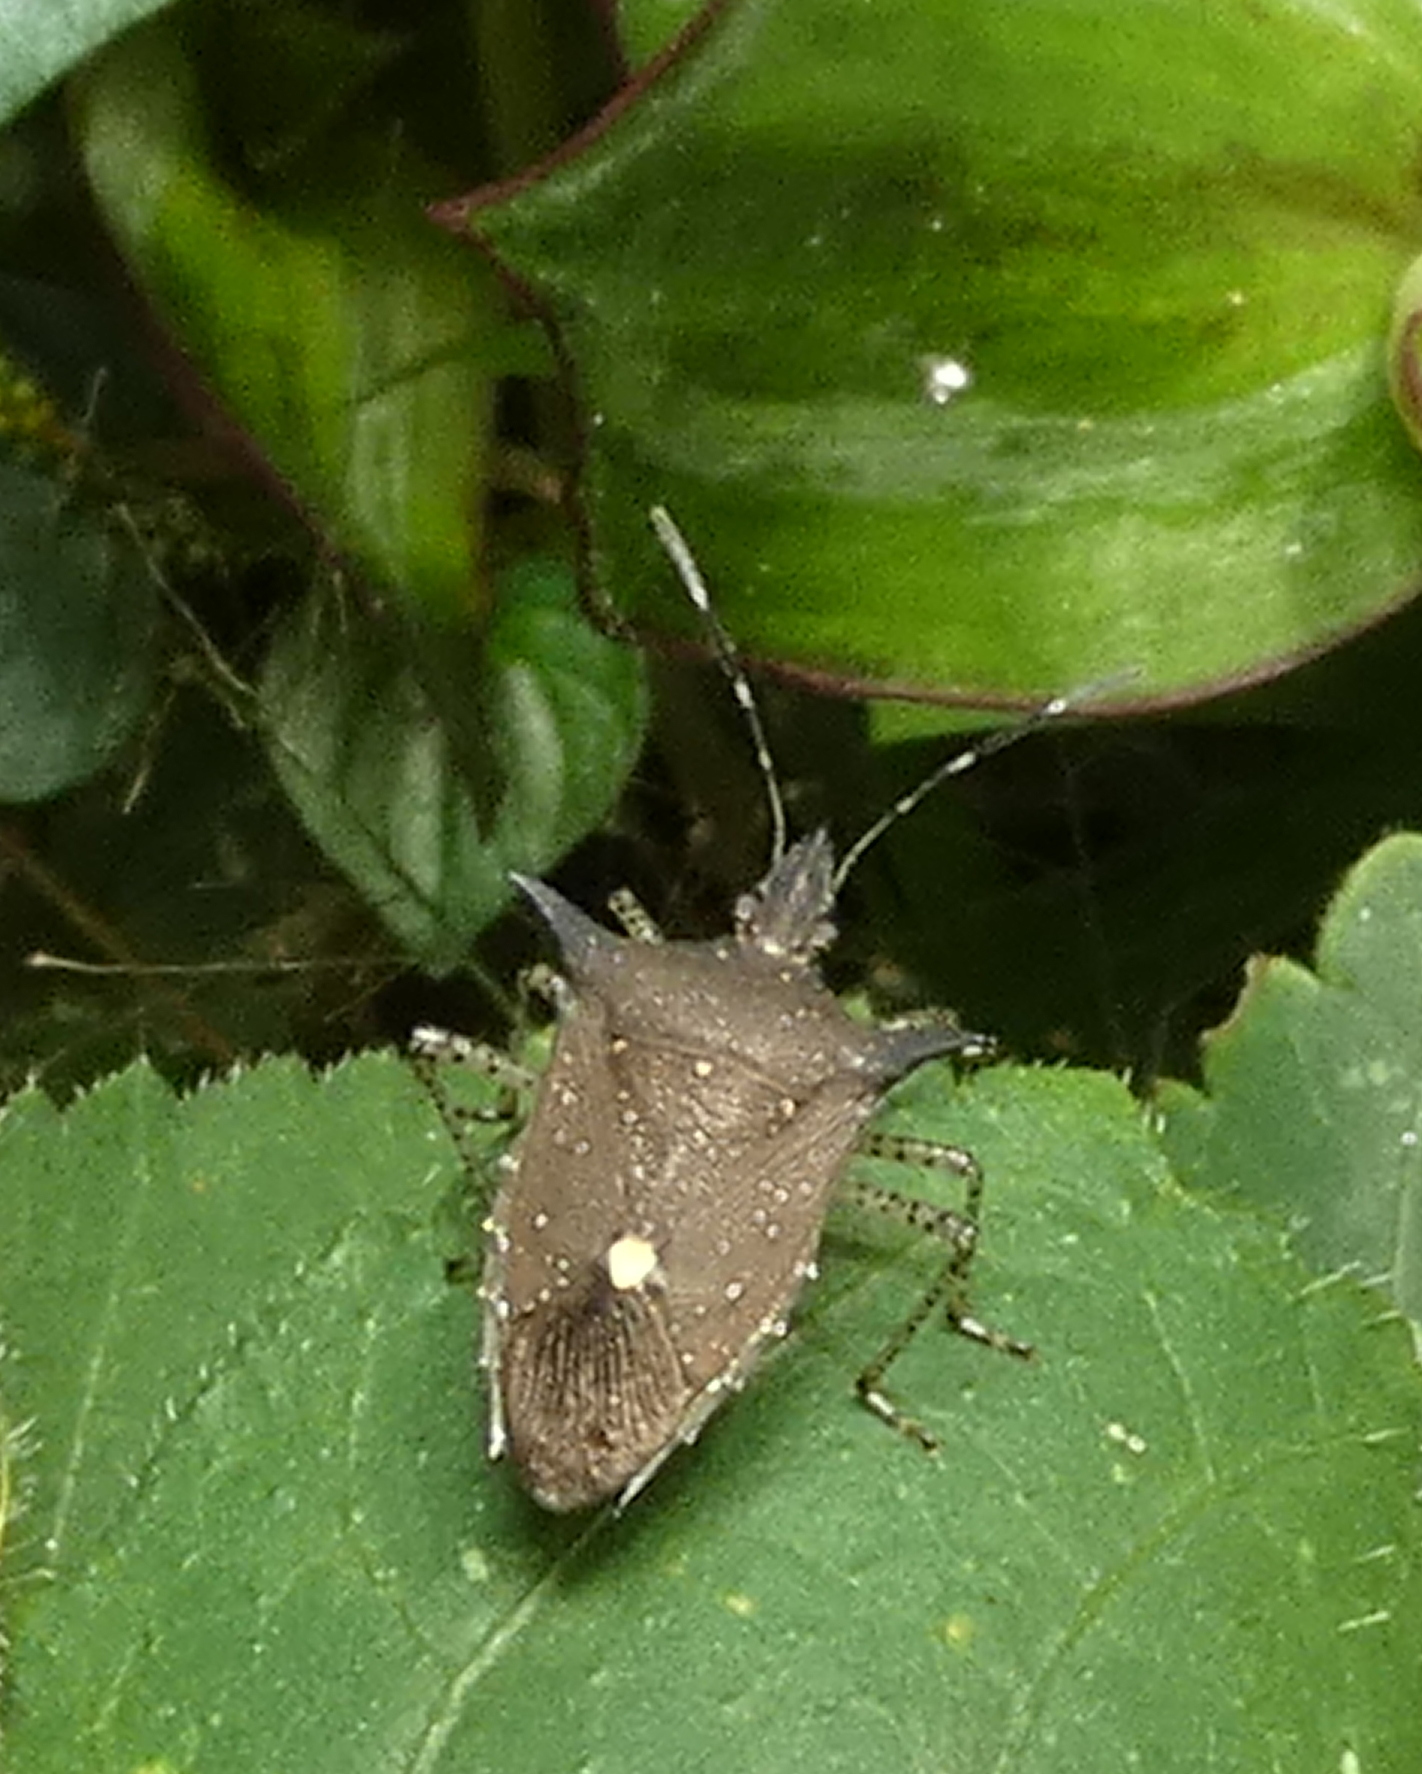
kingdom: Animalia
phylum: Arthropoda
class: Insecta
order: Hemiptera
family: Pentatomidae
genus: Proxys
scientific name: Proxys albopunctulatus
